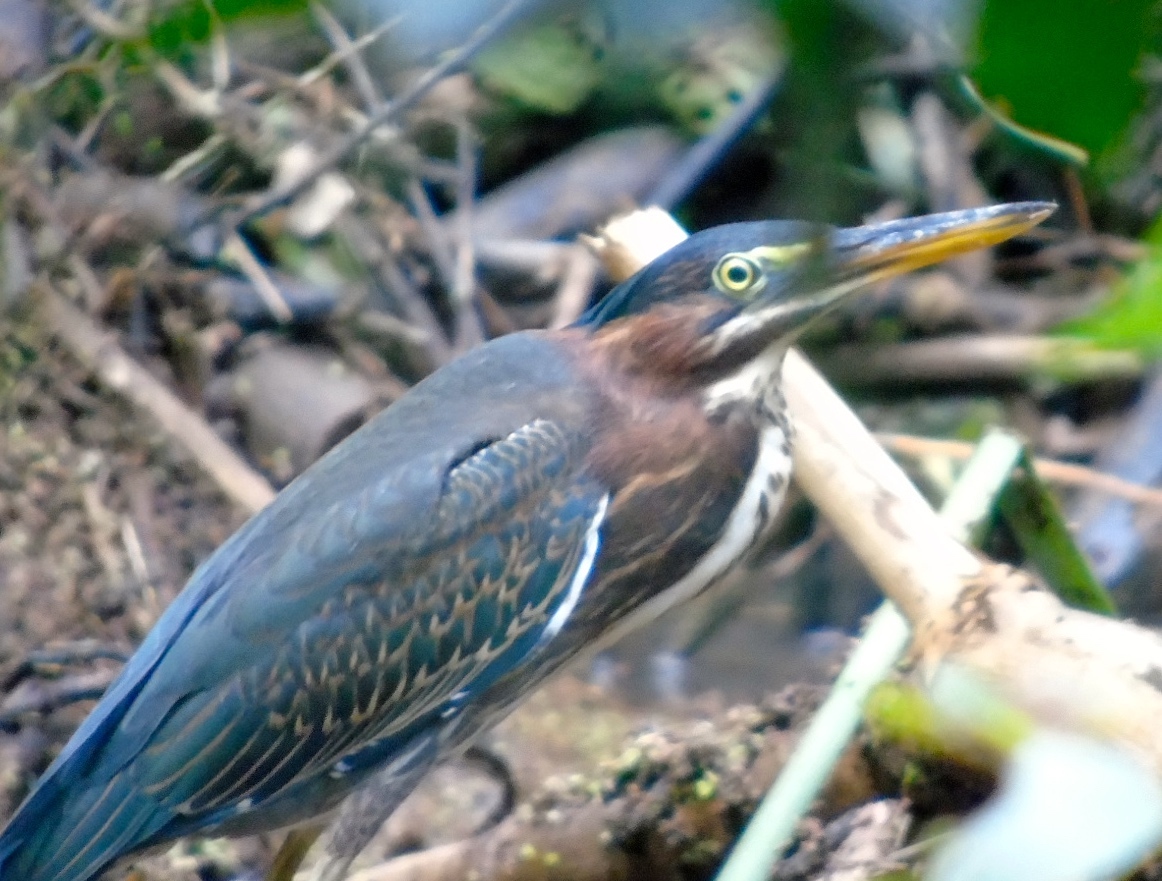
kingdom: Animalia
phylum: Chordata
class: Aves
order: Pelecaniformes
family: Ardeidae
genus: Butorides
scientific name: Butorides virescens
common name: Green heron
